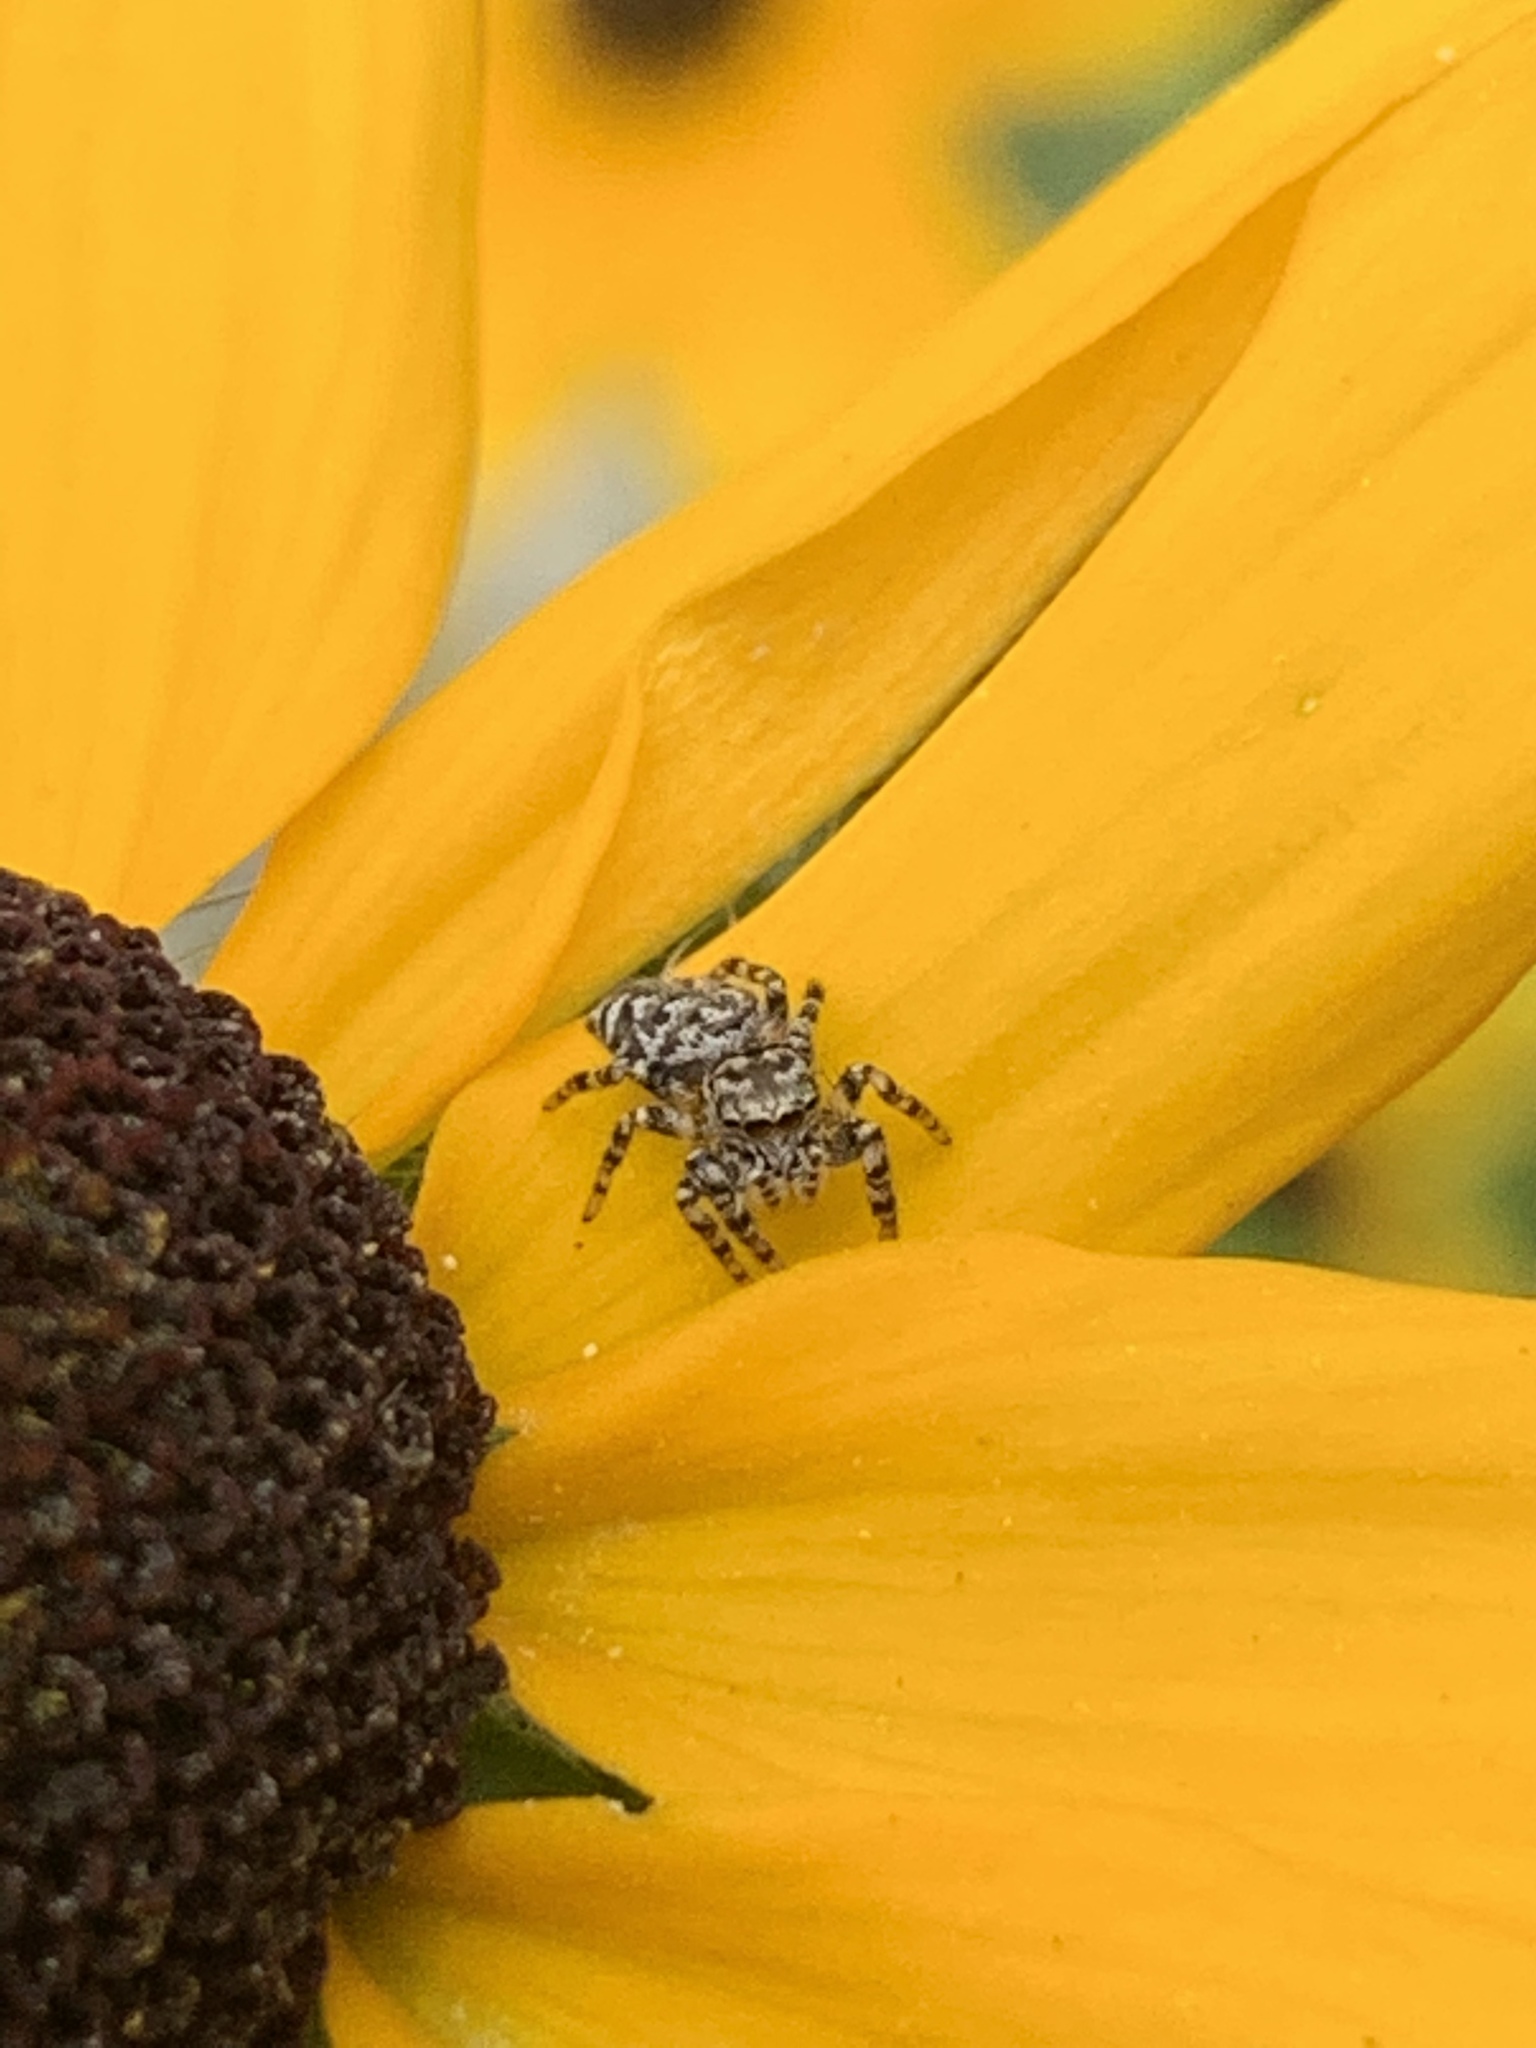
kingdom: Animalia
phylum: Arthropoda
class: Arachnida
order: Araneae
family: Salticidae
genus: Pelegrina
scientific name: Pelegrina galathea
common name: Jumping spiders
